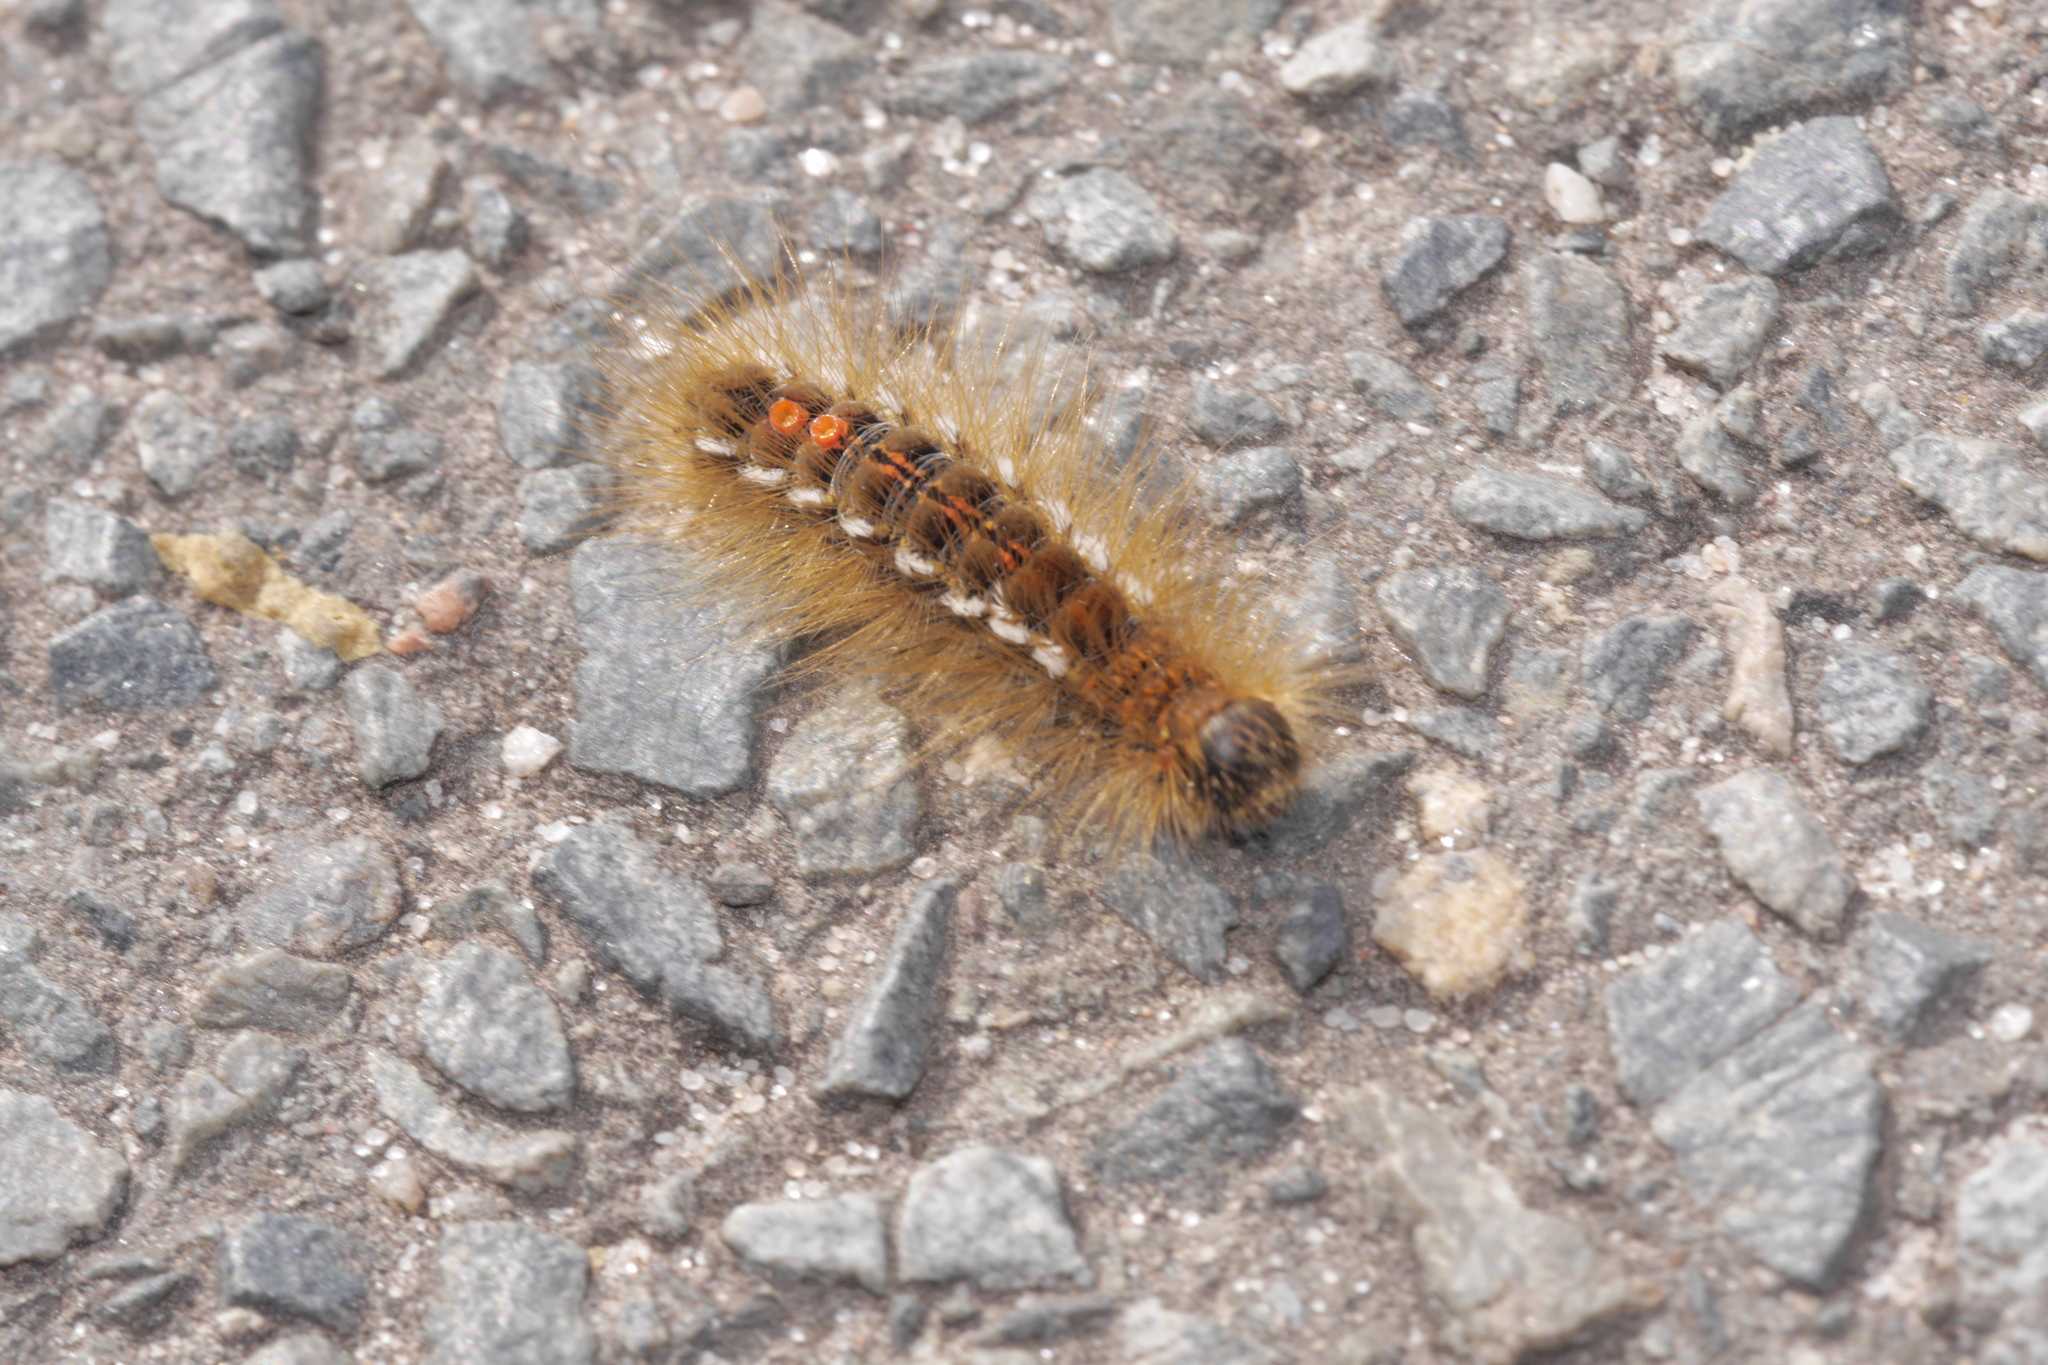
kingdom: Animalia
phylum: Arthropoda
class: Insecta
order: Lepidoptera
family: Erebidae
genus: Euproctis
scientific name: Euproctis chrysorrhoea
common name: Brown-tail
